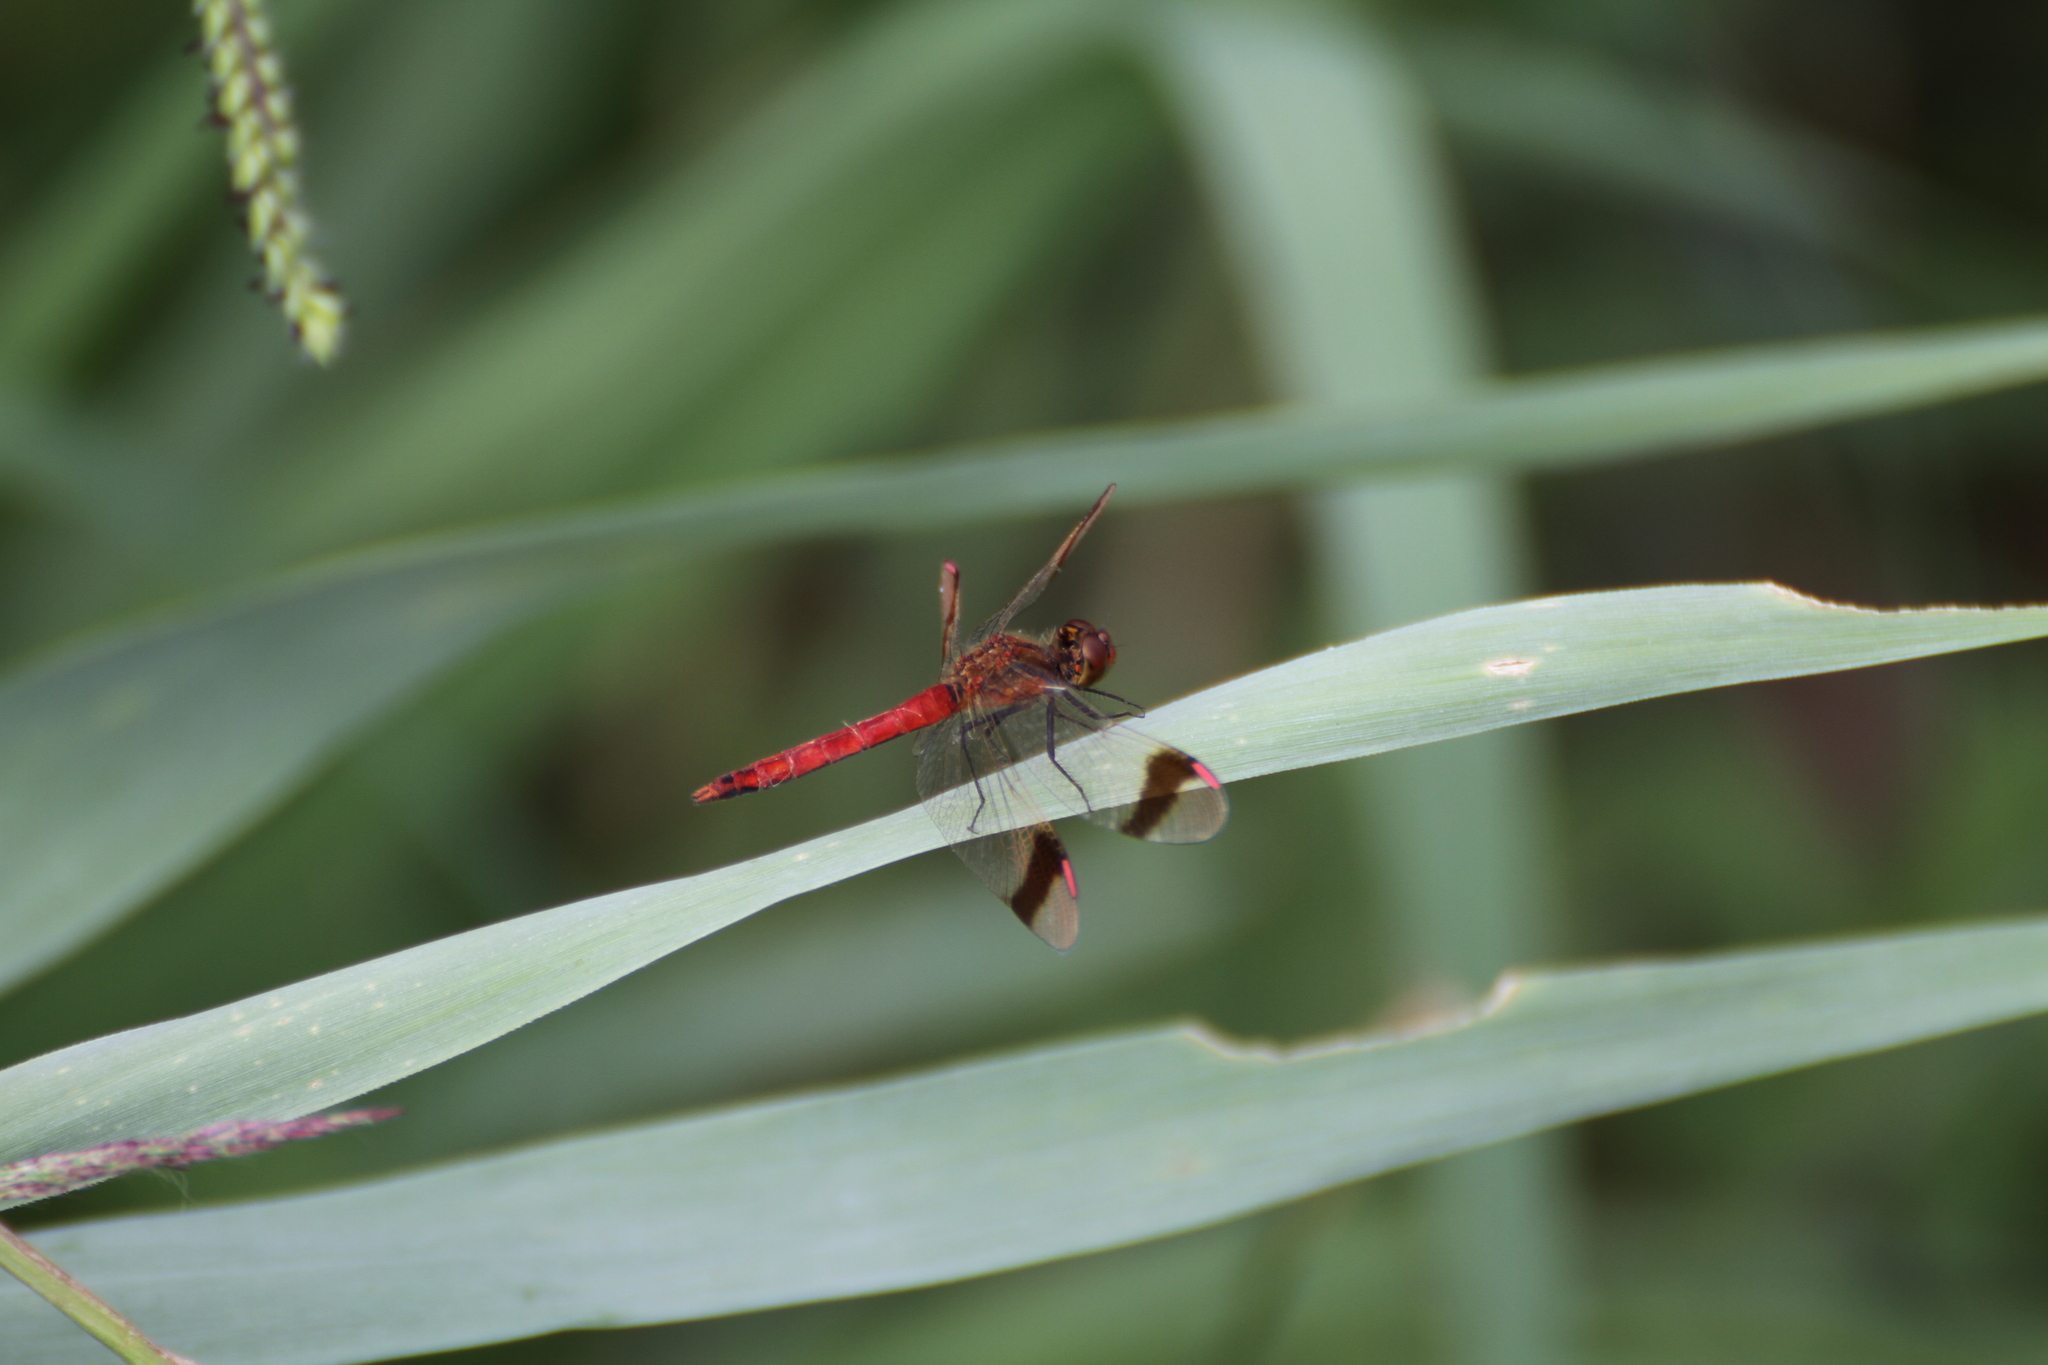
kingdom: Animalia
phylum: Arthropoda
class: Insecta
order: Odonata
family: Libellulidae
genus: Sympetrum
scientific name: Sympetrum pedemontanum
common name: Banded darter
